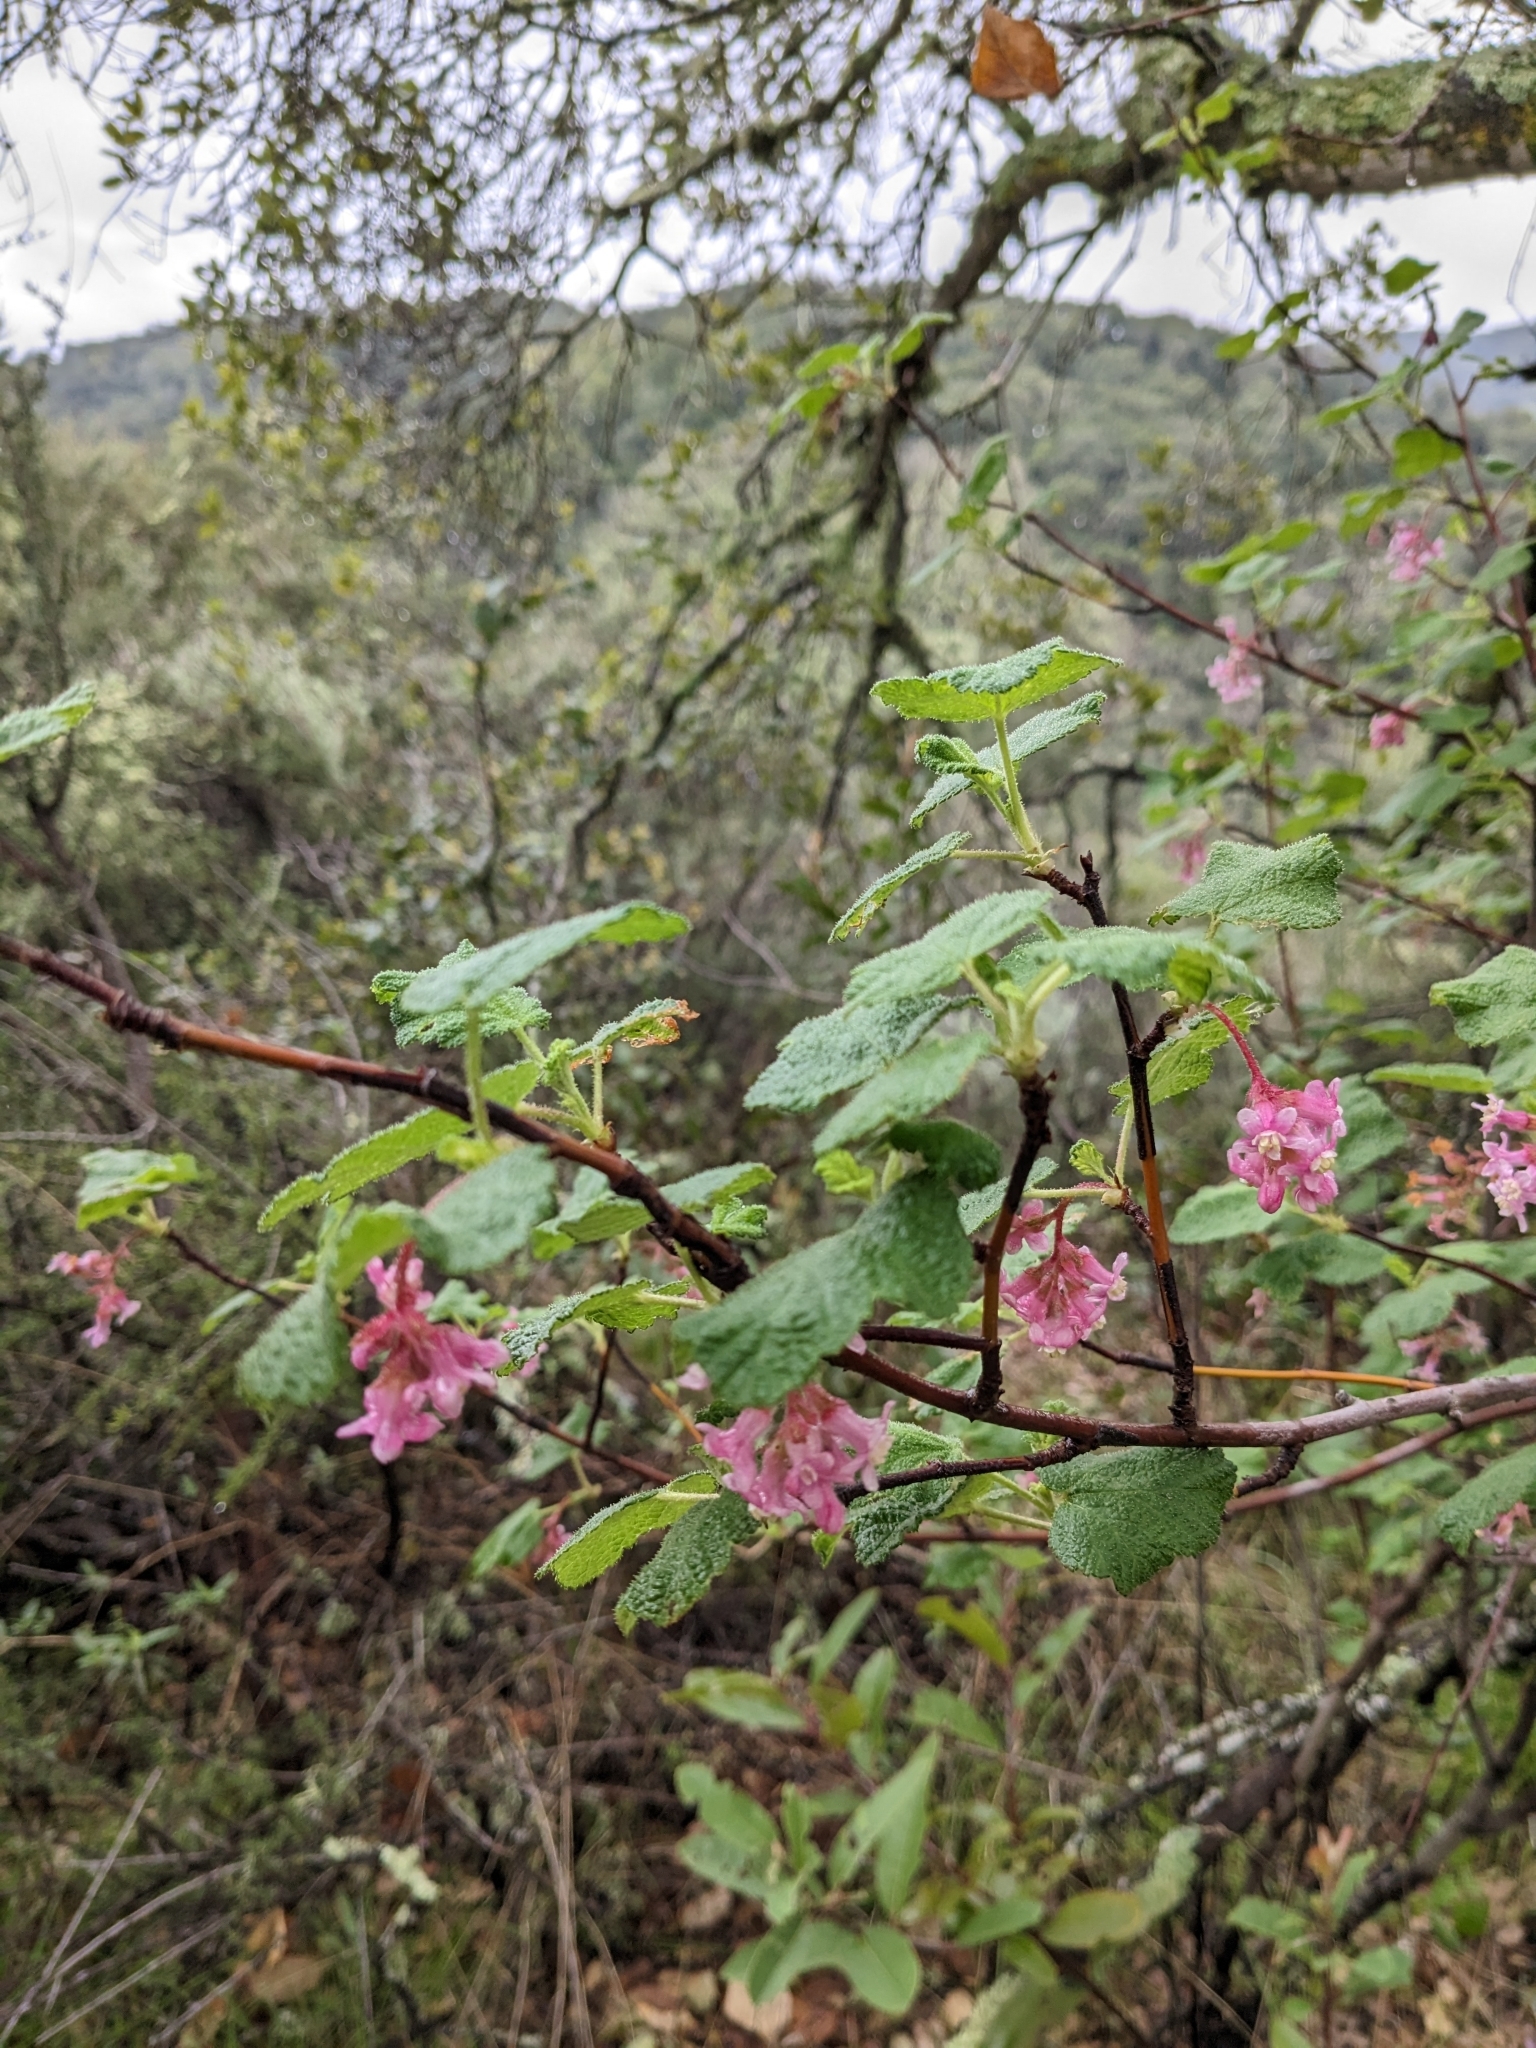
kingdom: Plantae
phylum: Tracheophyta
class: Magnoliopsida
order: Saxifragales
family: Grossulariaceae
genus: Ribes
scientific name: Ribes malvaceum
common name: Chaparral currant
